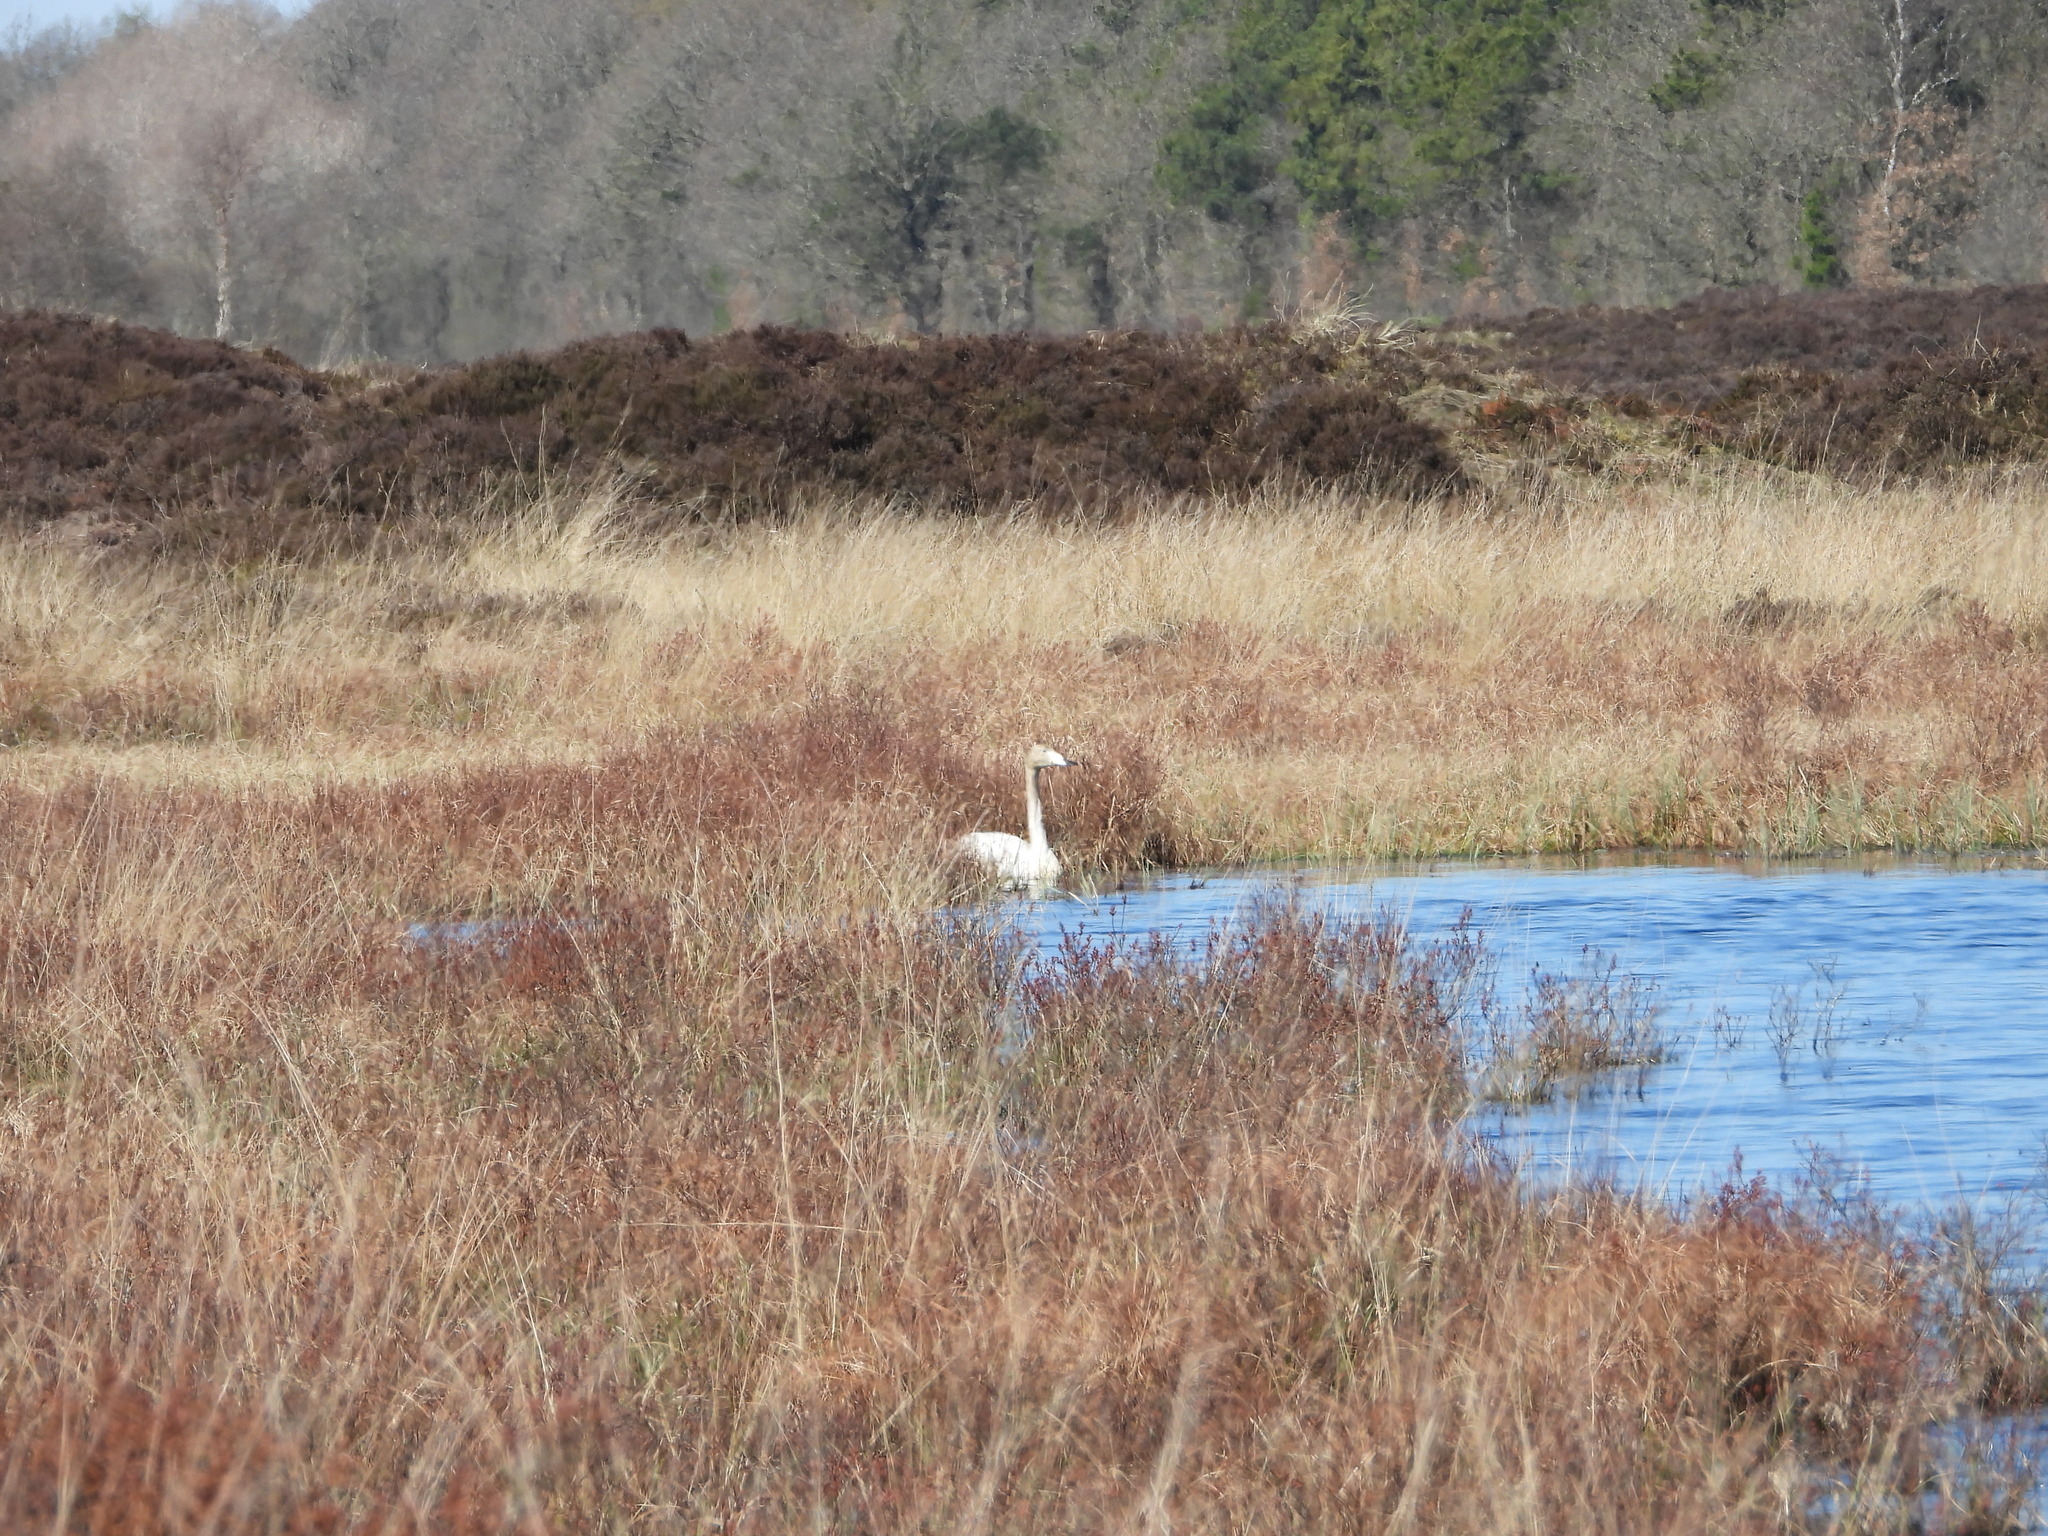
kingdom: Animalia
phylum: Chordata
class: Aves
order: Anseriformes
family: Anatidae
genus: Cygnus
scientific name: Cygnus cygnus
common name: Whooper swan
